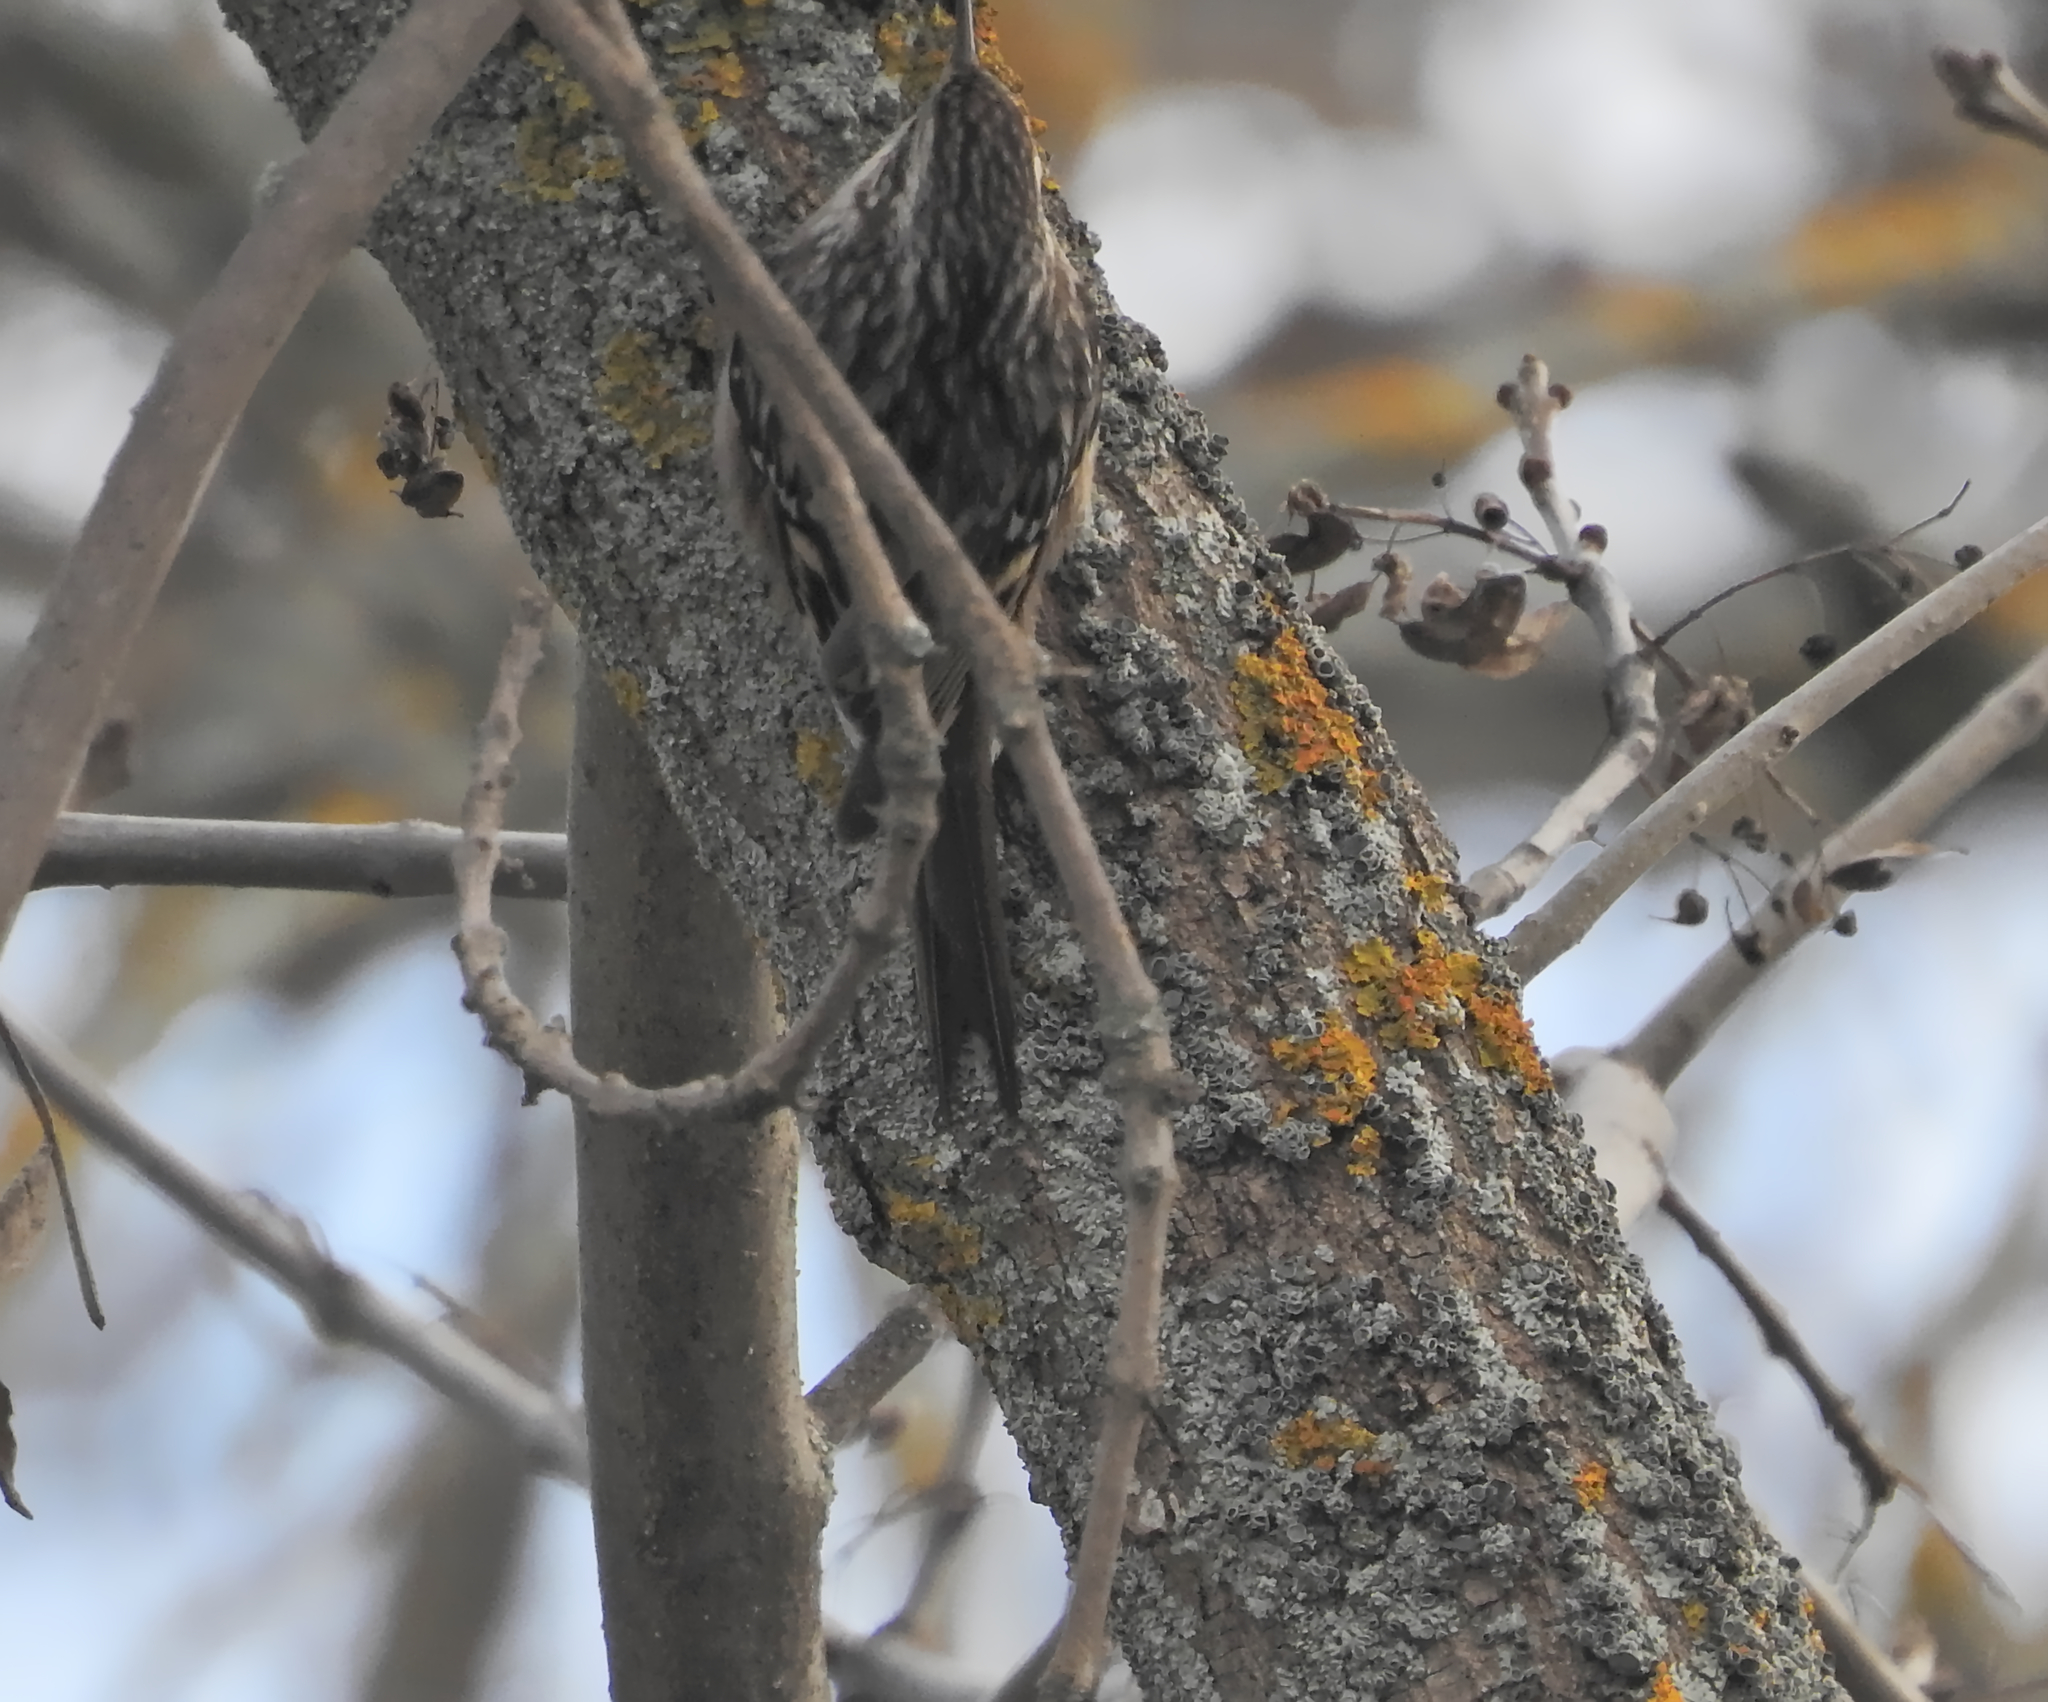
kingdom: Animalia
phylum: Chordata
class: Aves
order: Passeriformes
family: Certhiidae
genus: Certhia
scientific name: Certhia brachydactyla
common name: Short-toed treecreeper
